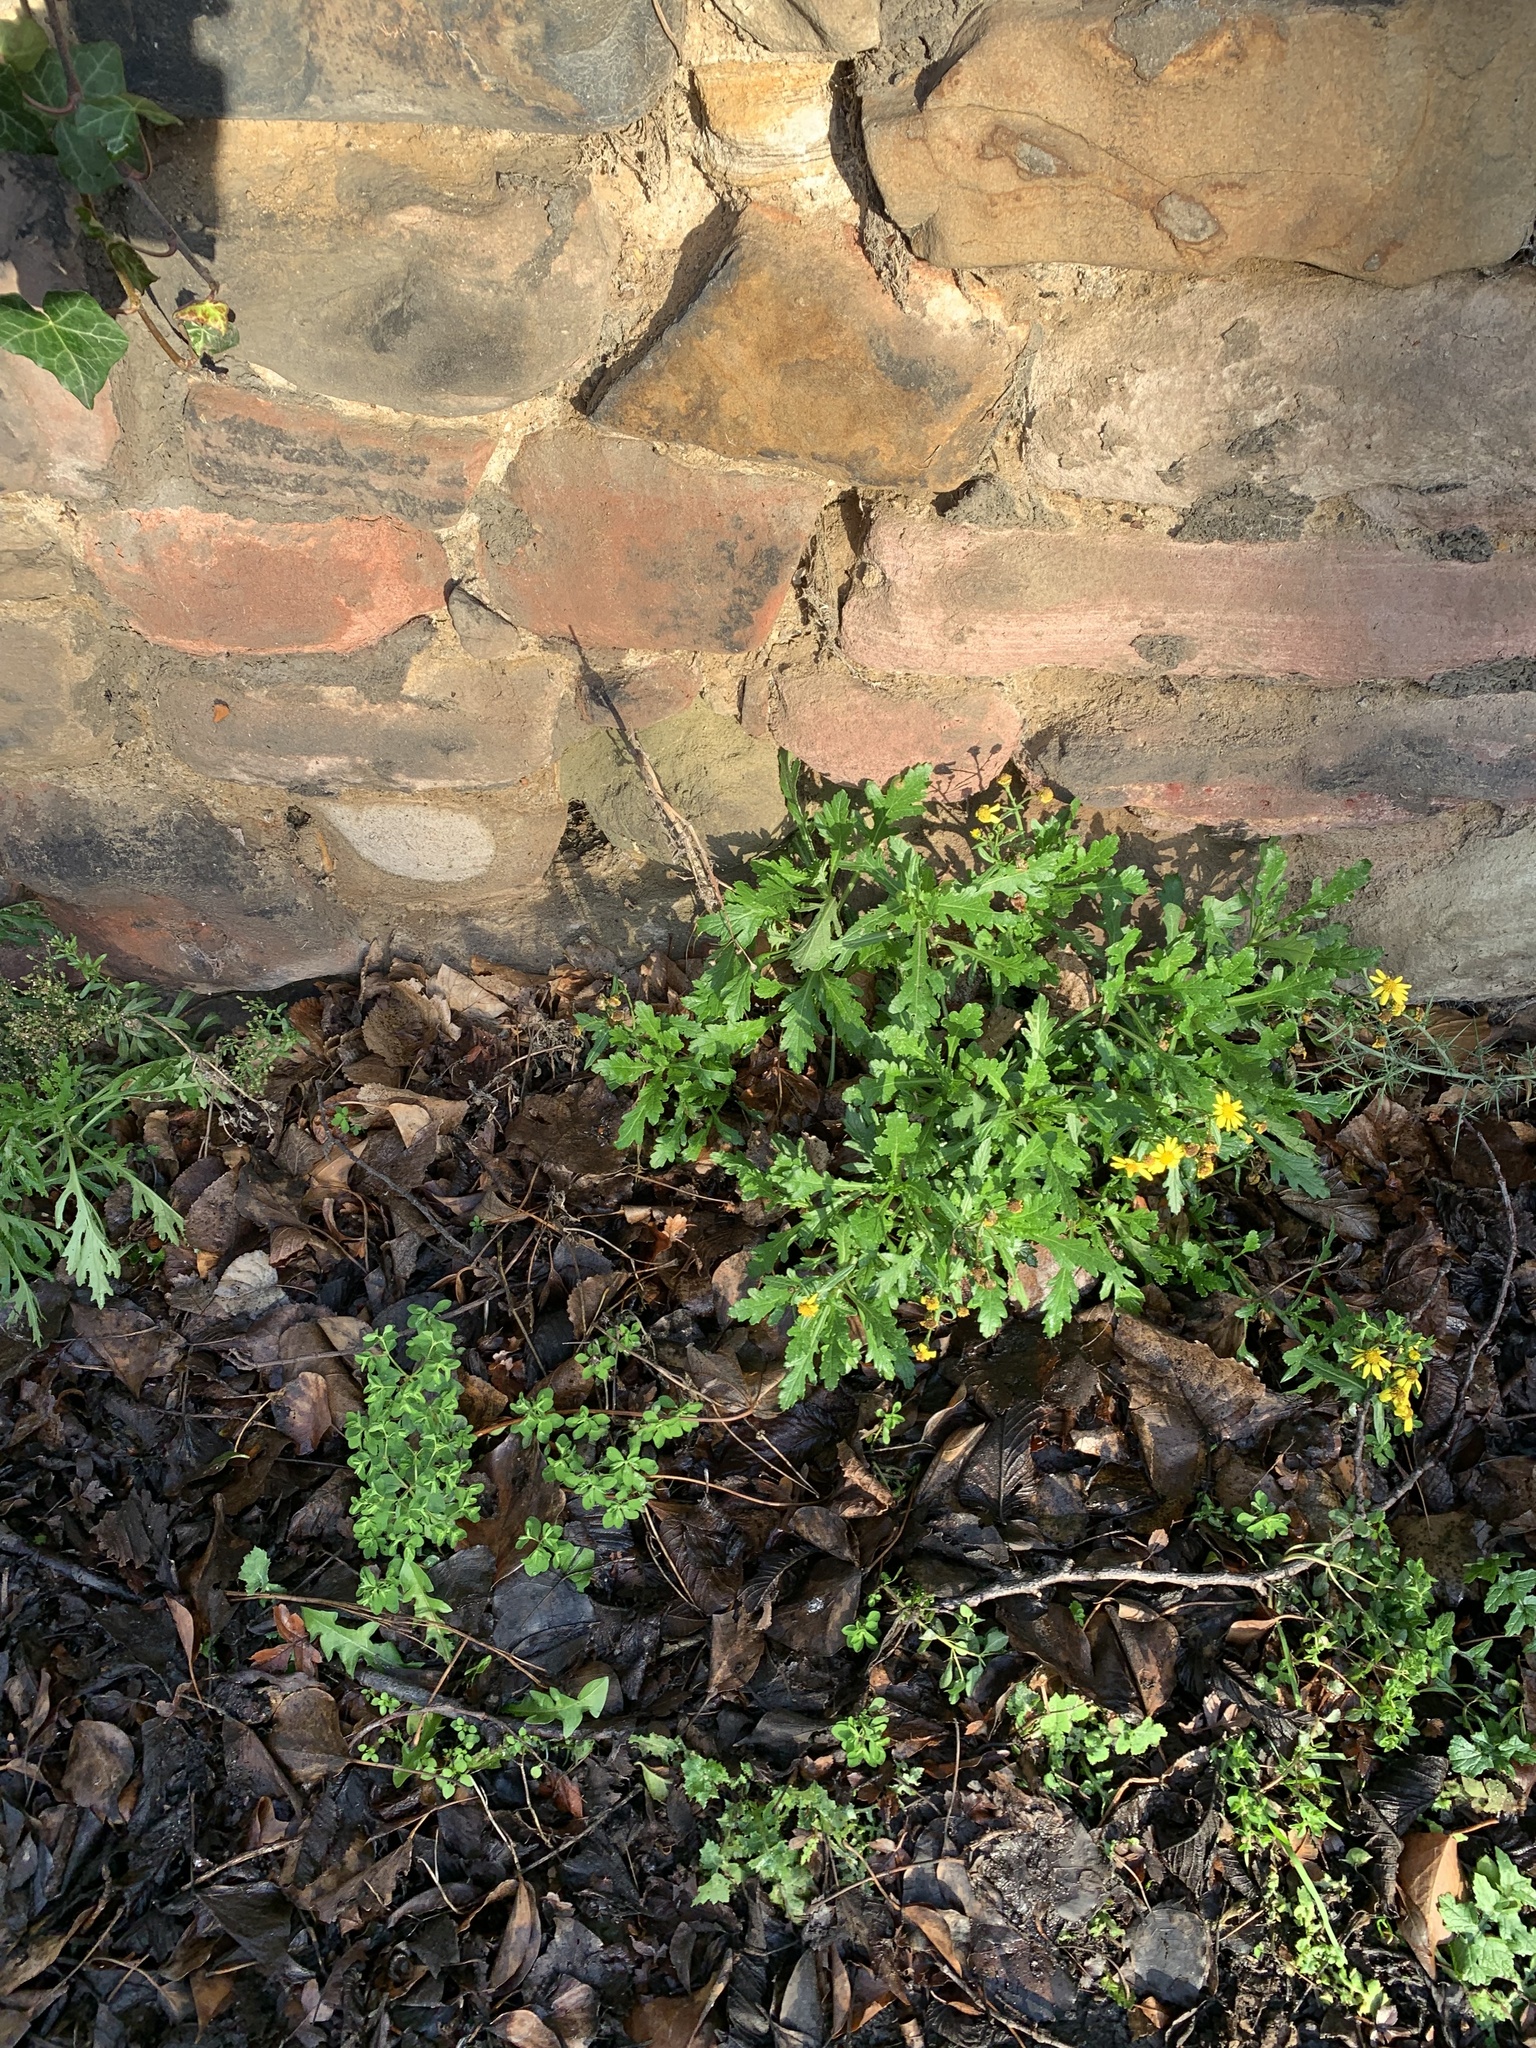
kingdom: Plantae
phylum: Tracheophyta
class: Magnoliopsida
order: Asterales
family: Asteraceae
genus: Senecio
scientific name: Senecio squalidus
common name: Oxford ragwort
